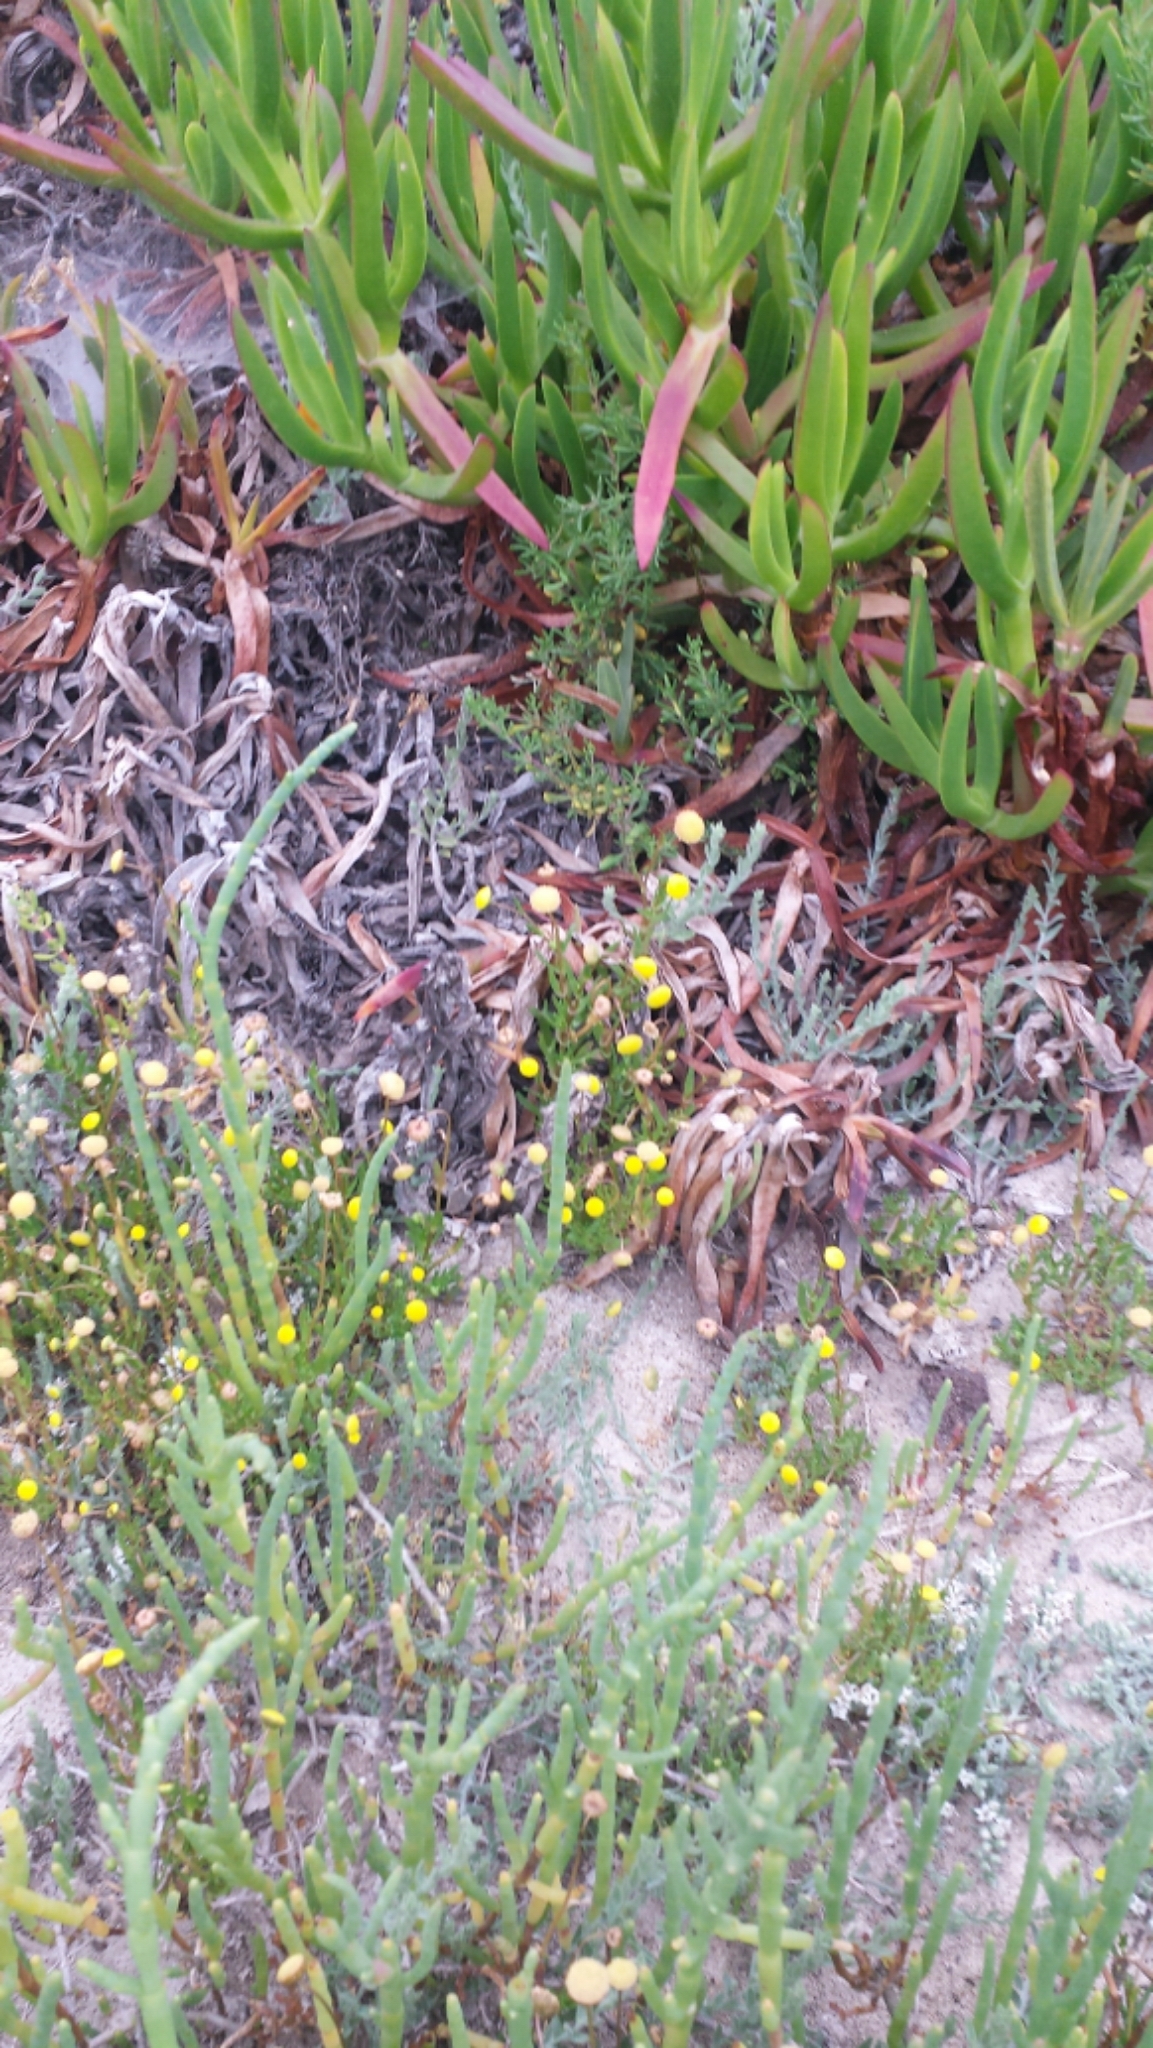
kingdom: Plantae
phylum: Tracheophyta
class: Magnoliopsida
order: Asterales
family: Asteraceae
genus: Cotula
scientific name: Cotula coronopifolia
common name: Buttonweed
